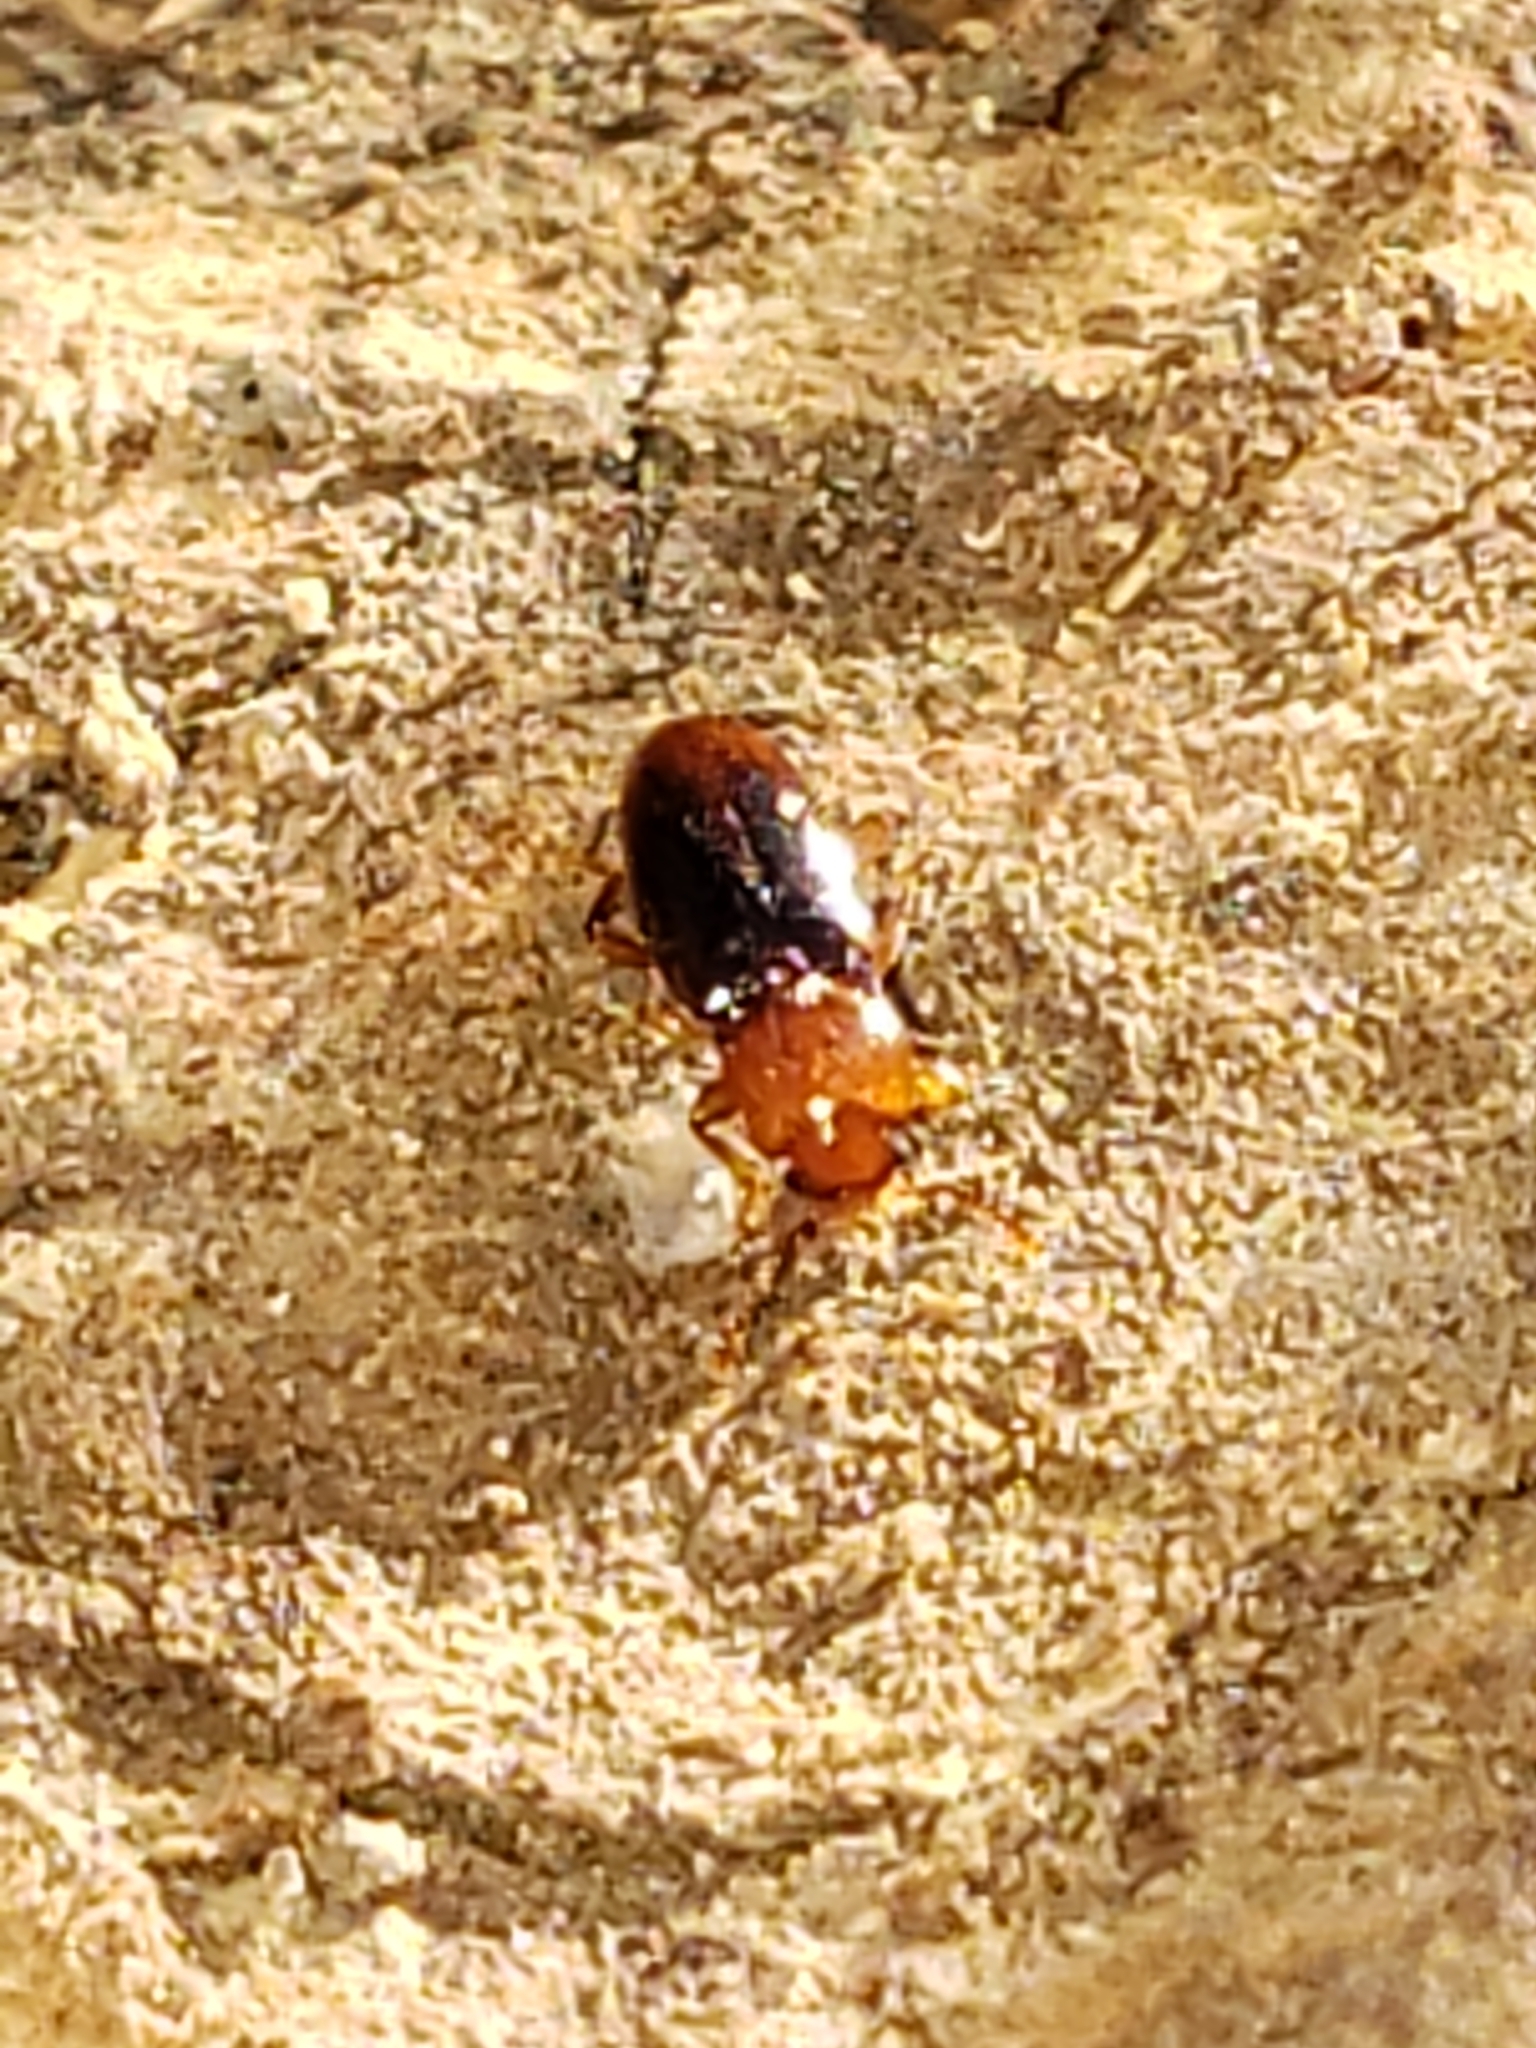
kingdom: Animalia
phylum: Arthropoda
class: Insecta
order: Coleoptera
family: Endomychidae
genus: Rhanidea
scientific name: Rhanidea unicolor
